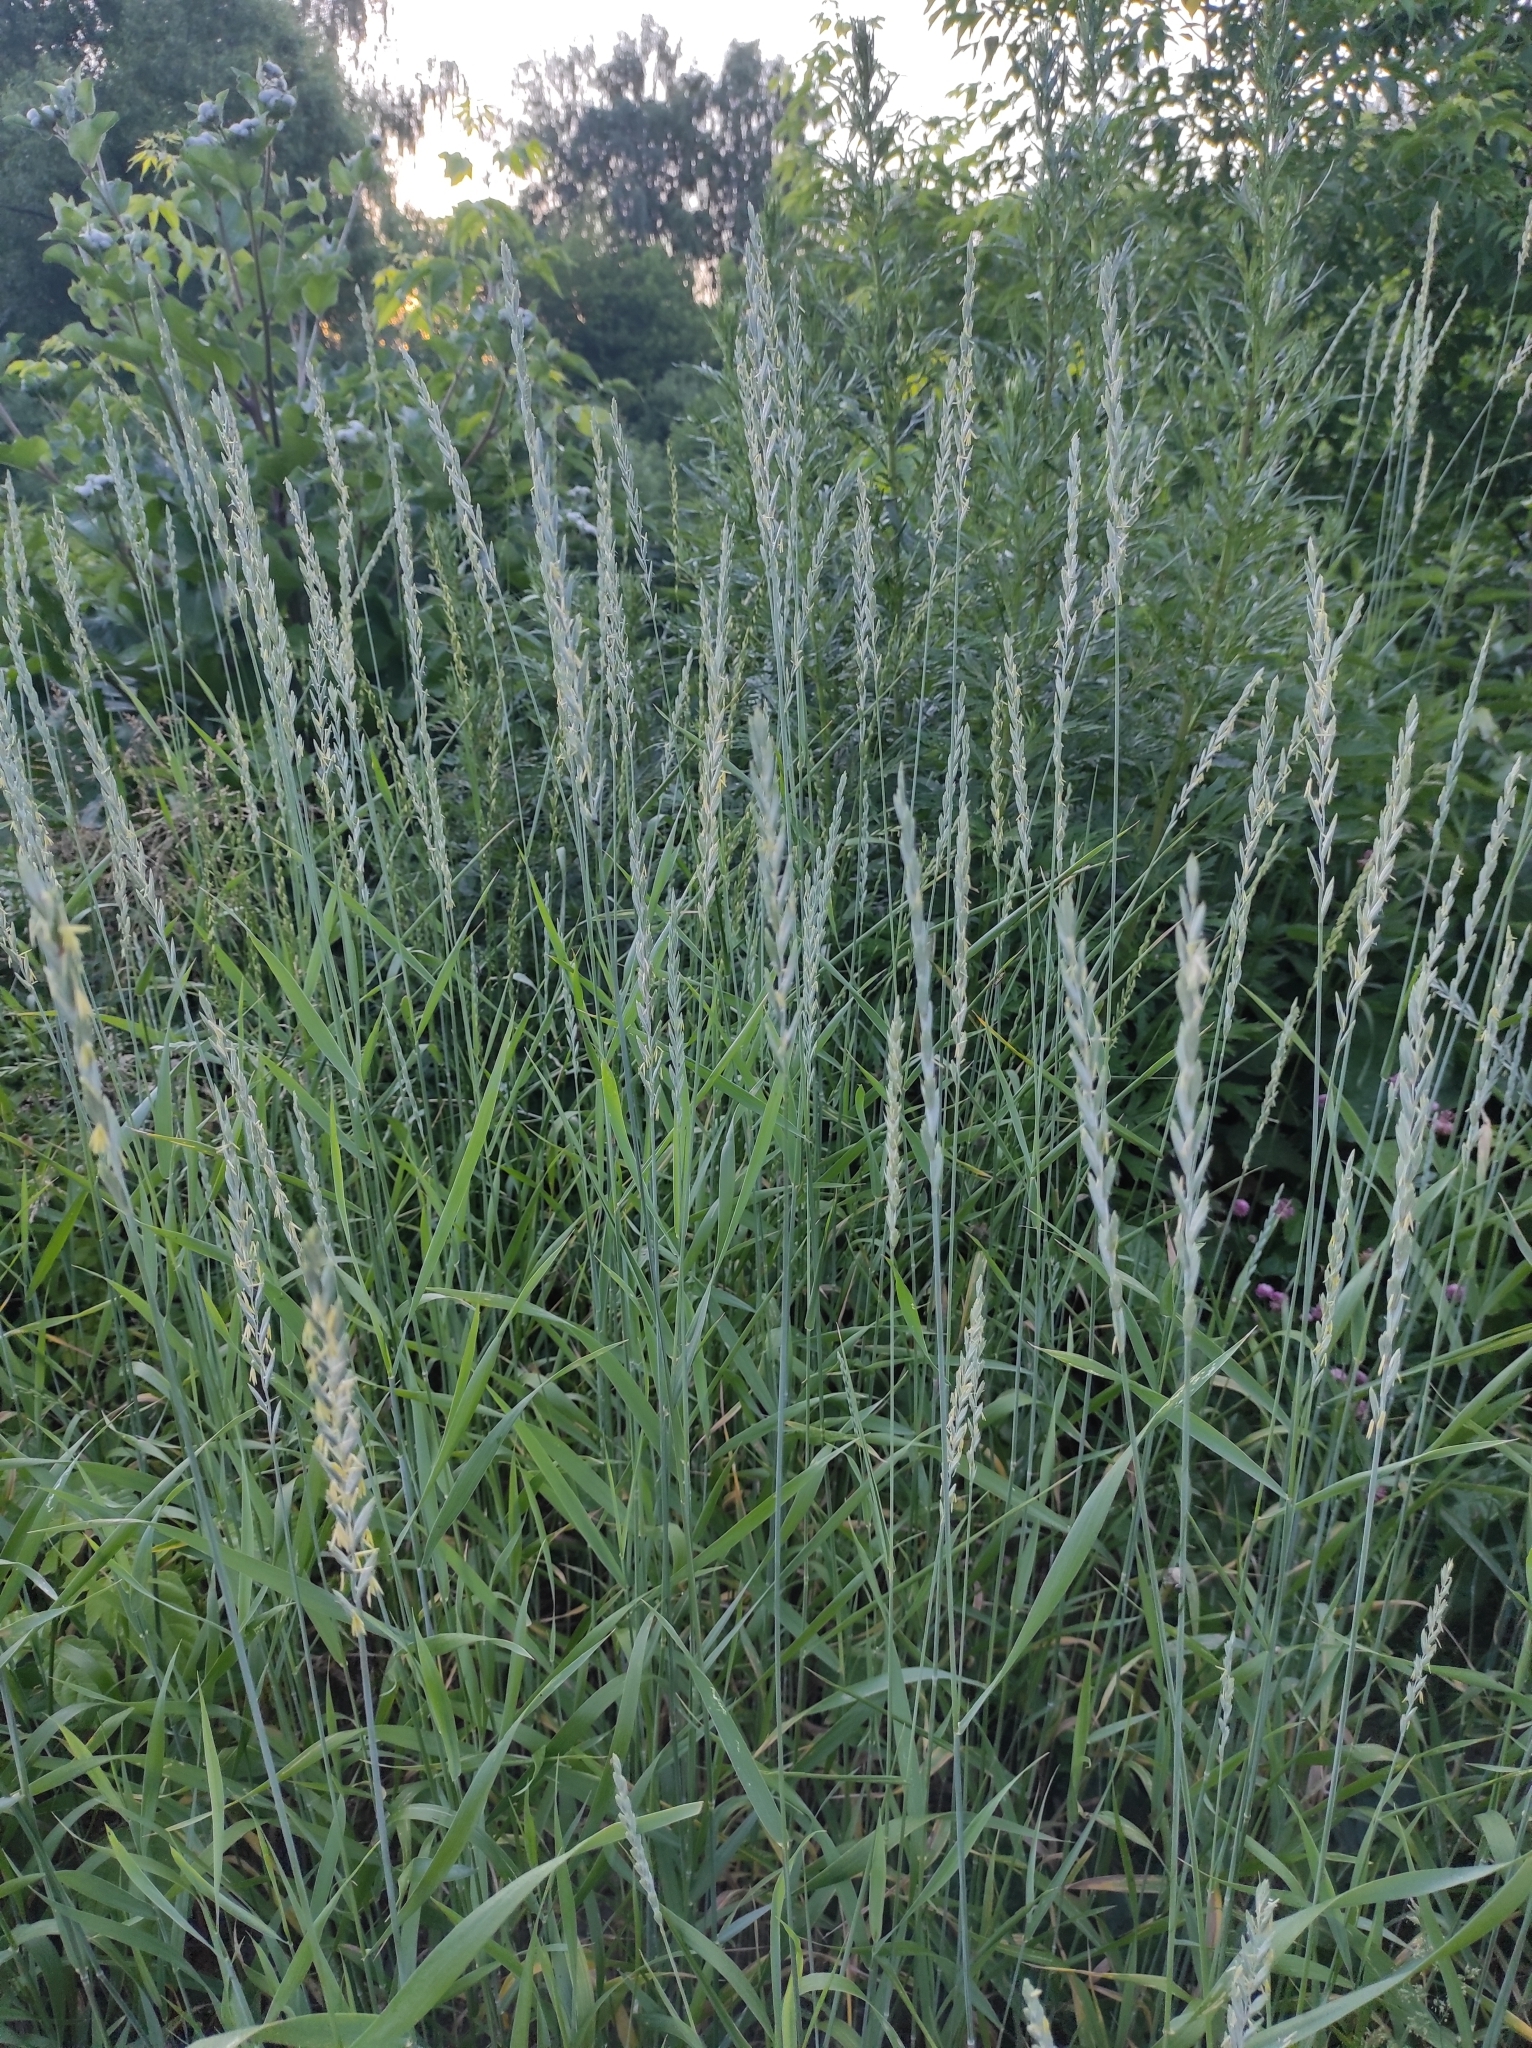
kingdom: Plantae
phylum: Tracheophyta
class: Liliopsida
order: Poales
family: Poaceae
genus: Elymus
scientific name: Elymus repens
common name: Quackgrass
